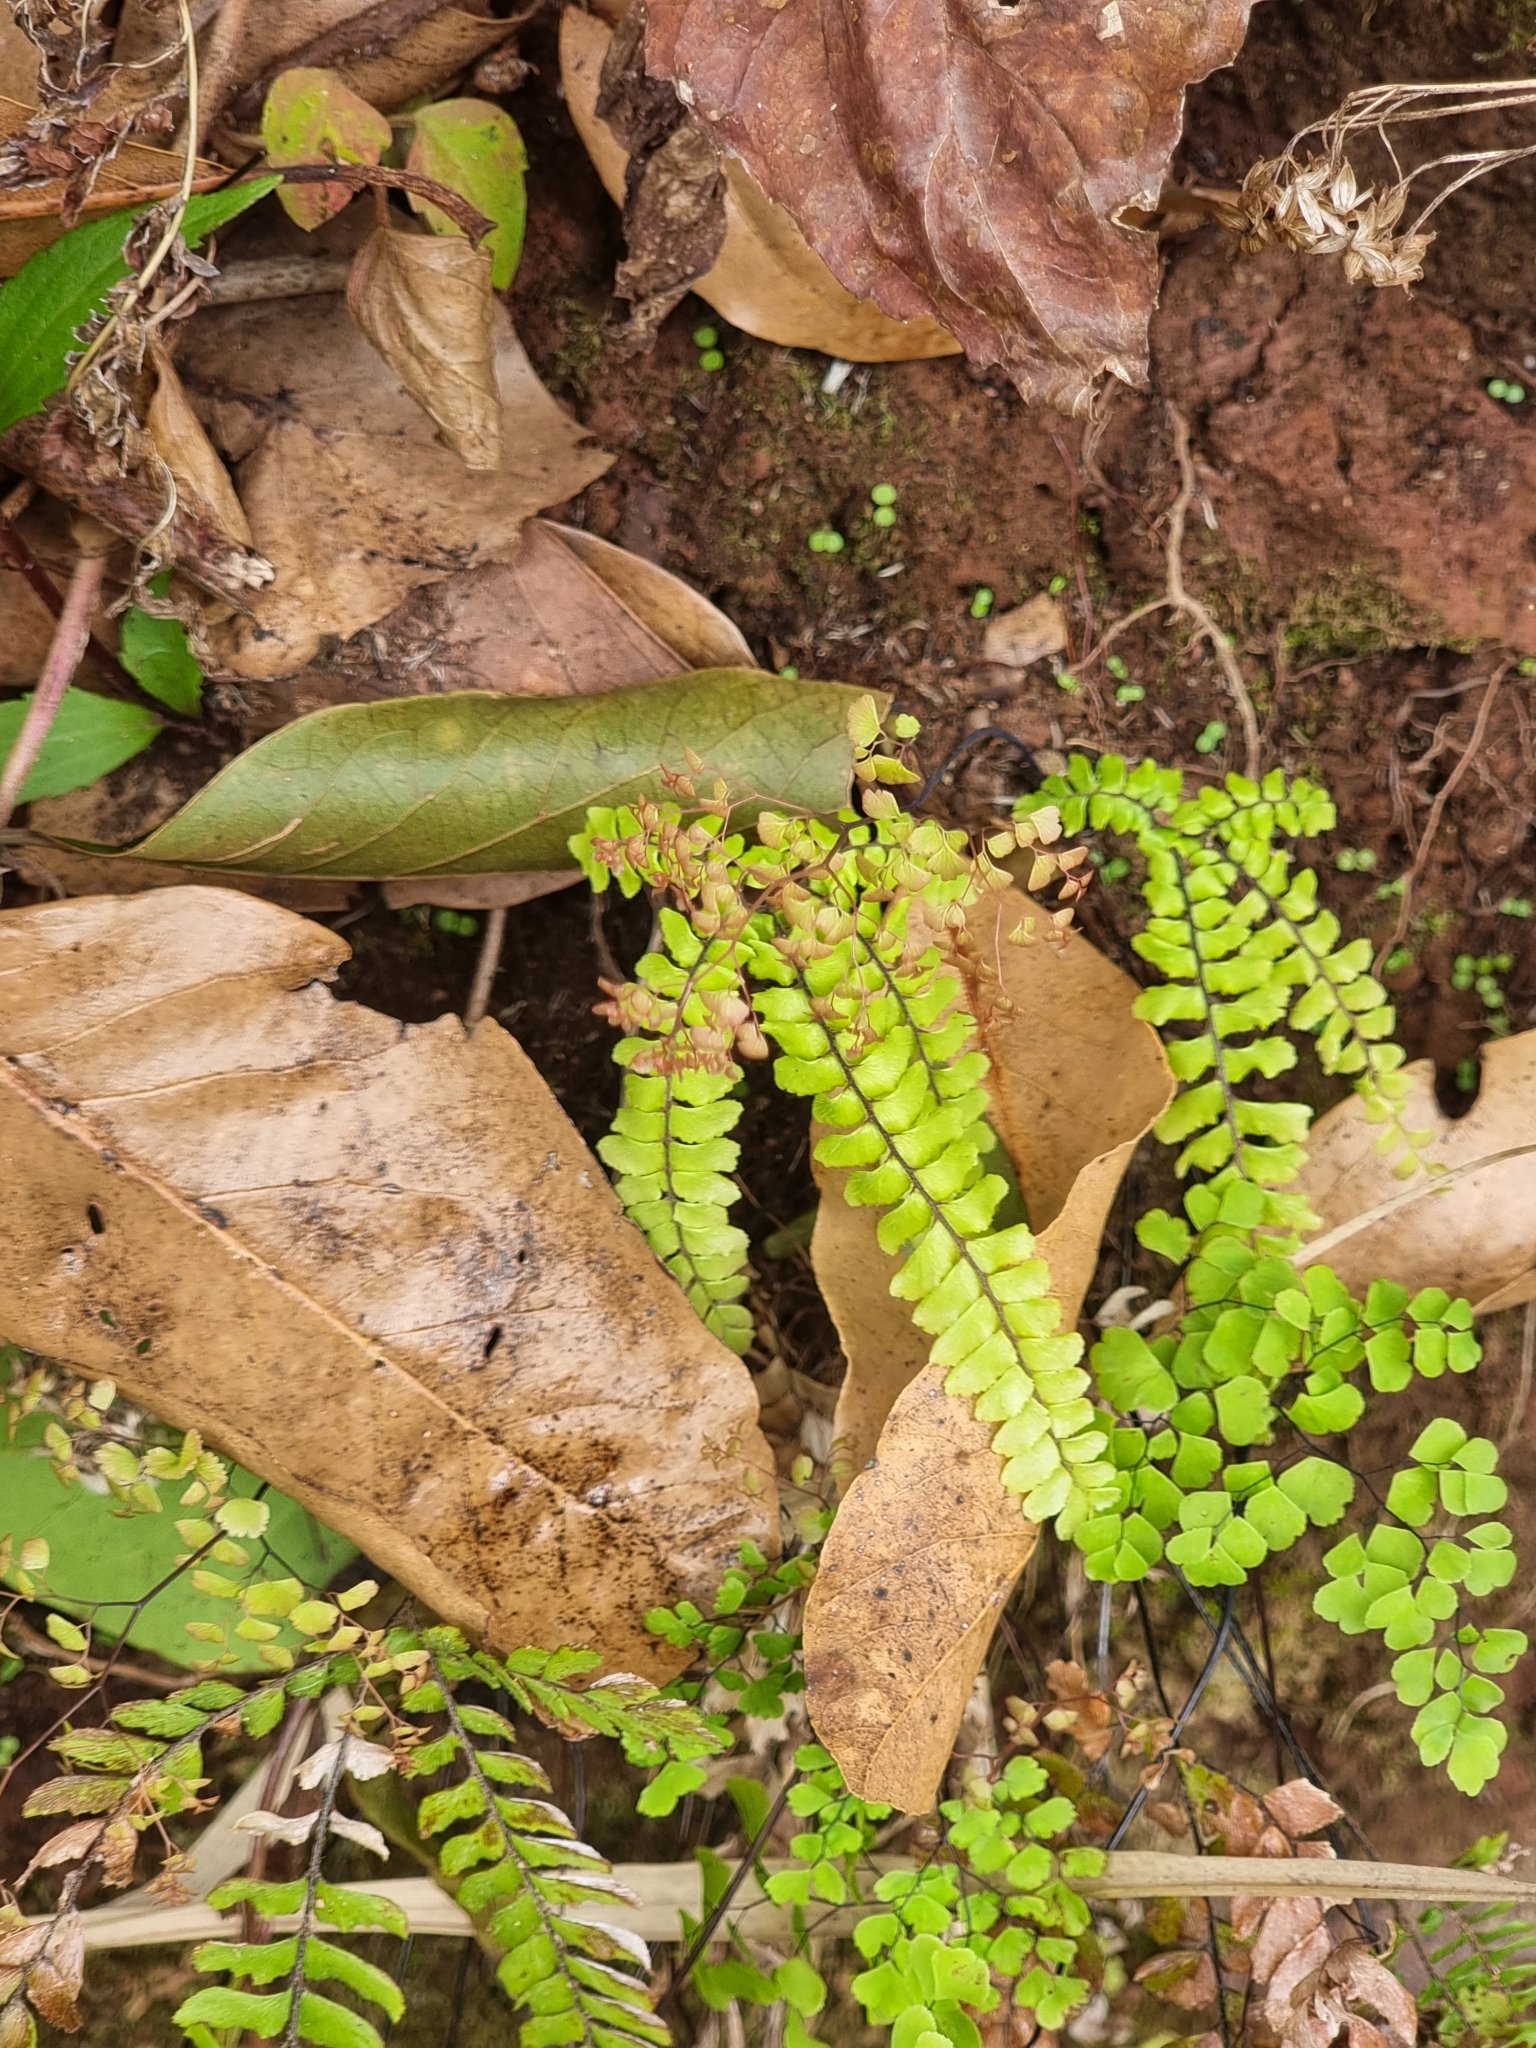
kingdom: Plantae
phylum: Tracheophyta
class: Polypodiopsida
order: Polypodiales
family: Pteridaceae
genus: Adiantum
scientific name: Adiantum hispidulum
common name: Rough maidenhair
